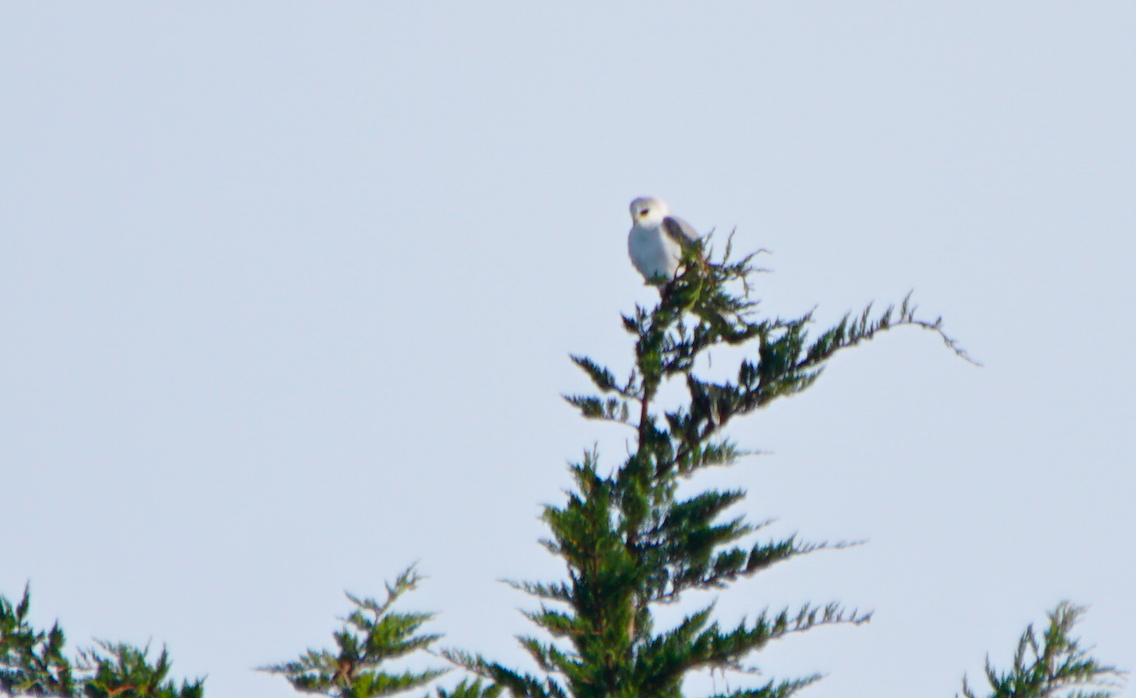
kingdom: Animalia
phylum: Chordata
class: Aves
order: Accipitriformes
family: Accipitridae
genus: Elanus
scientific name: Elanus leucurus
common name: White-tailed kite
